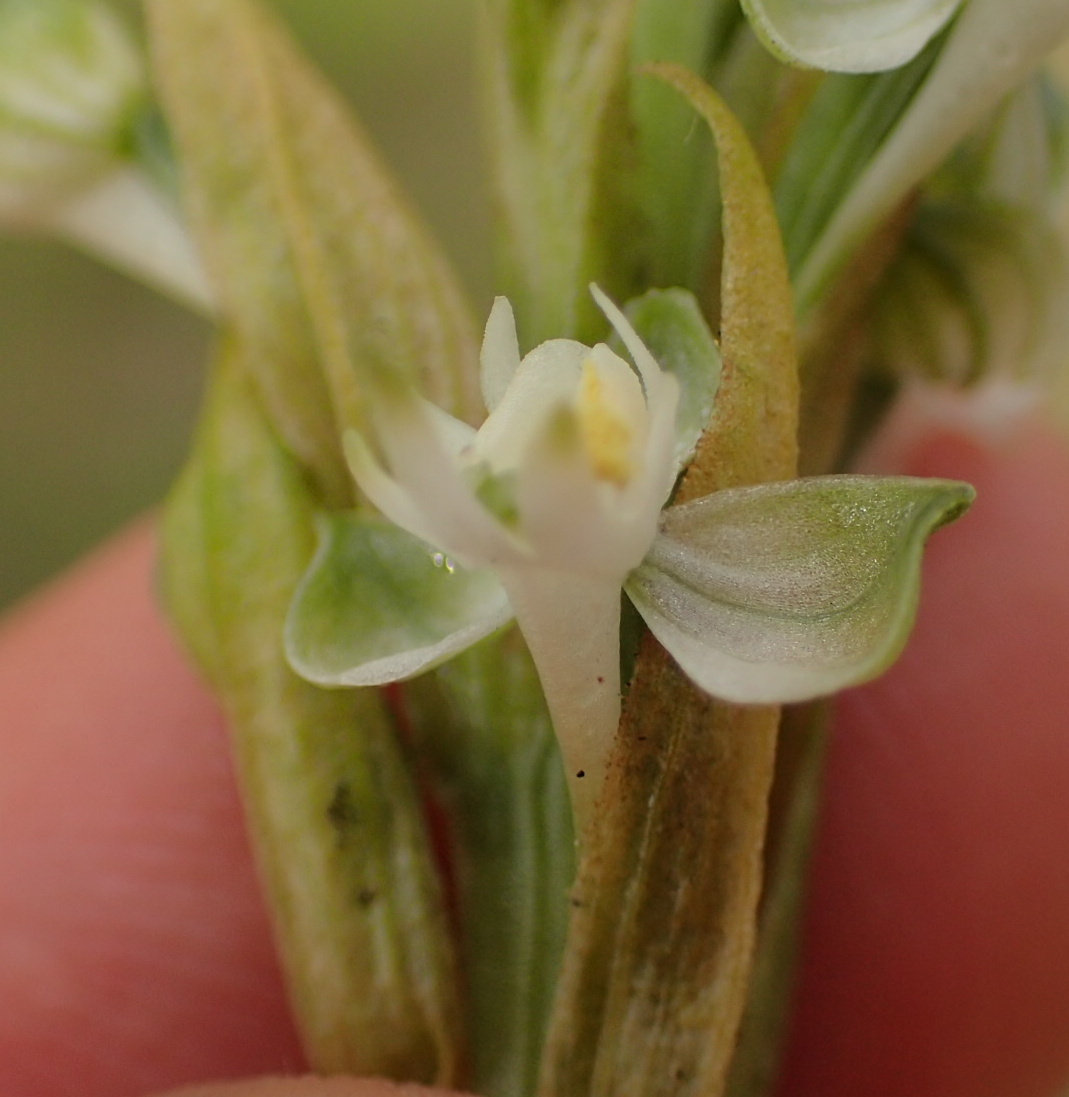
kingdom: Plantae
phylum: Tracheophyta
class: Liliopsida
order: Asparagales
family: Orchidaceae
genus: Habenaria
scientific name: Habenaria dives
